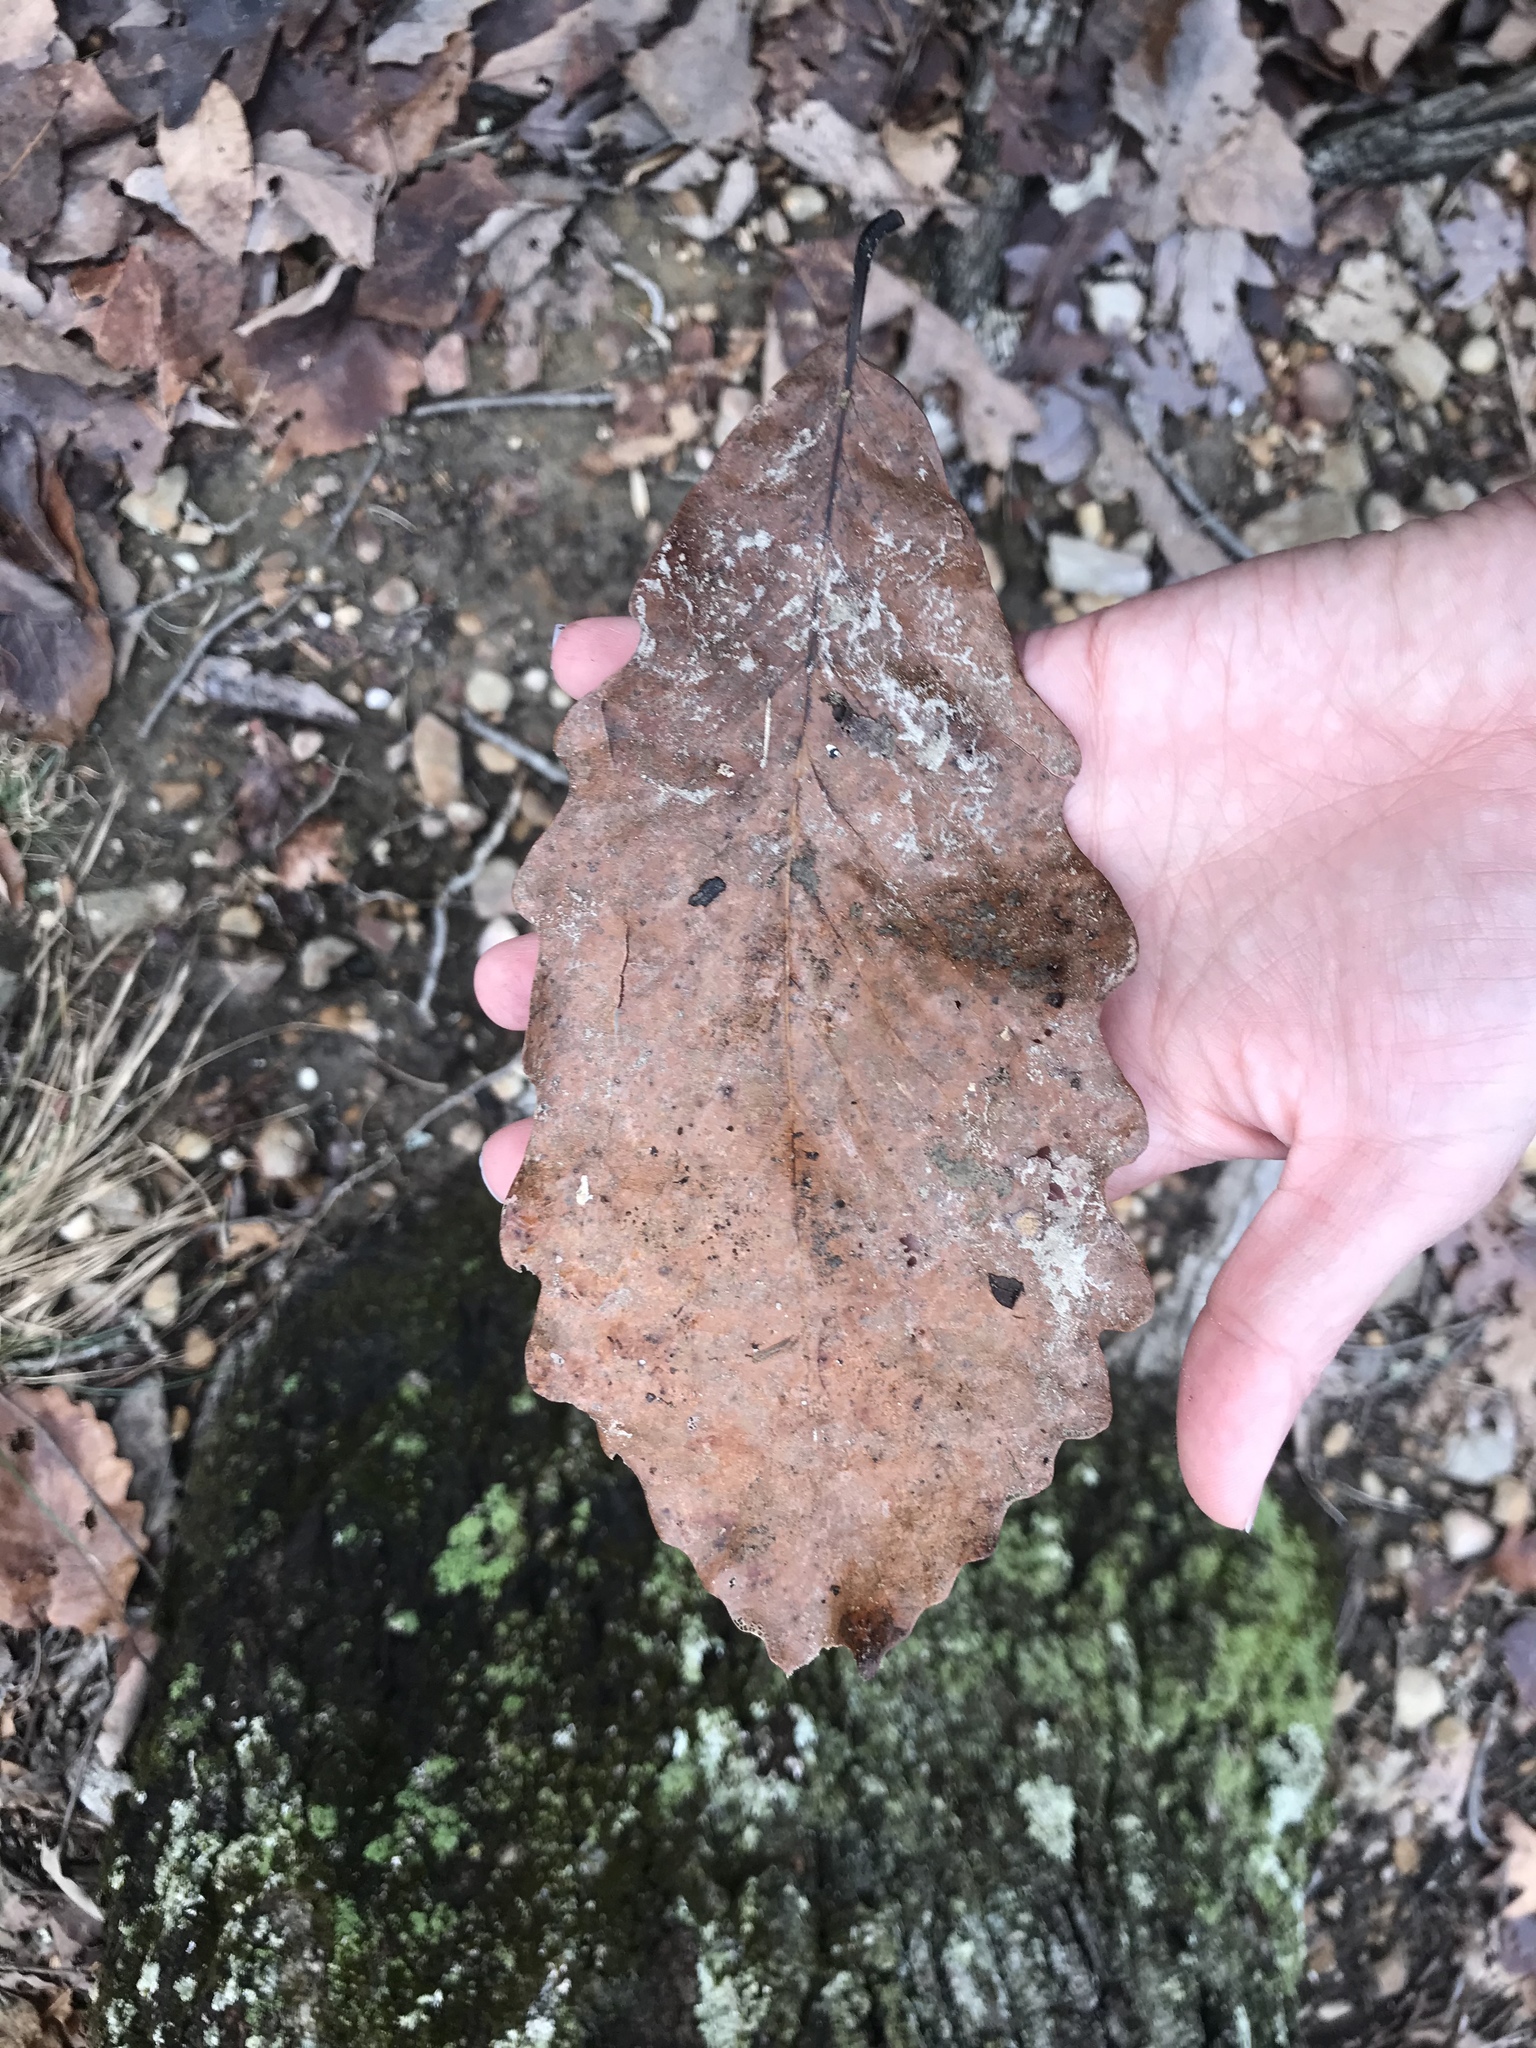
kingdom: Plantae
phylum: Tracheophyta
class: Magnoliopsida
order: Fagales
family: Fagaceae
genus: Quercus
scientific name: Quercus montana
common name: Chestnut oak
